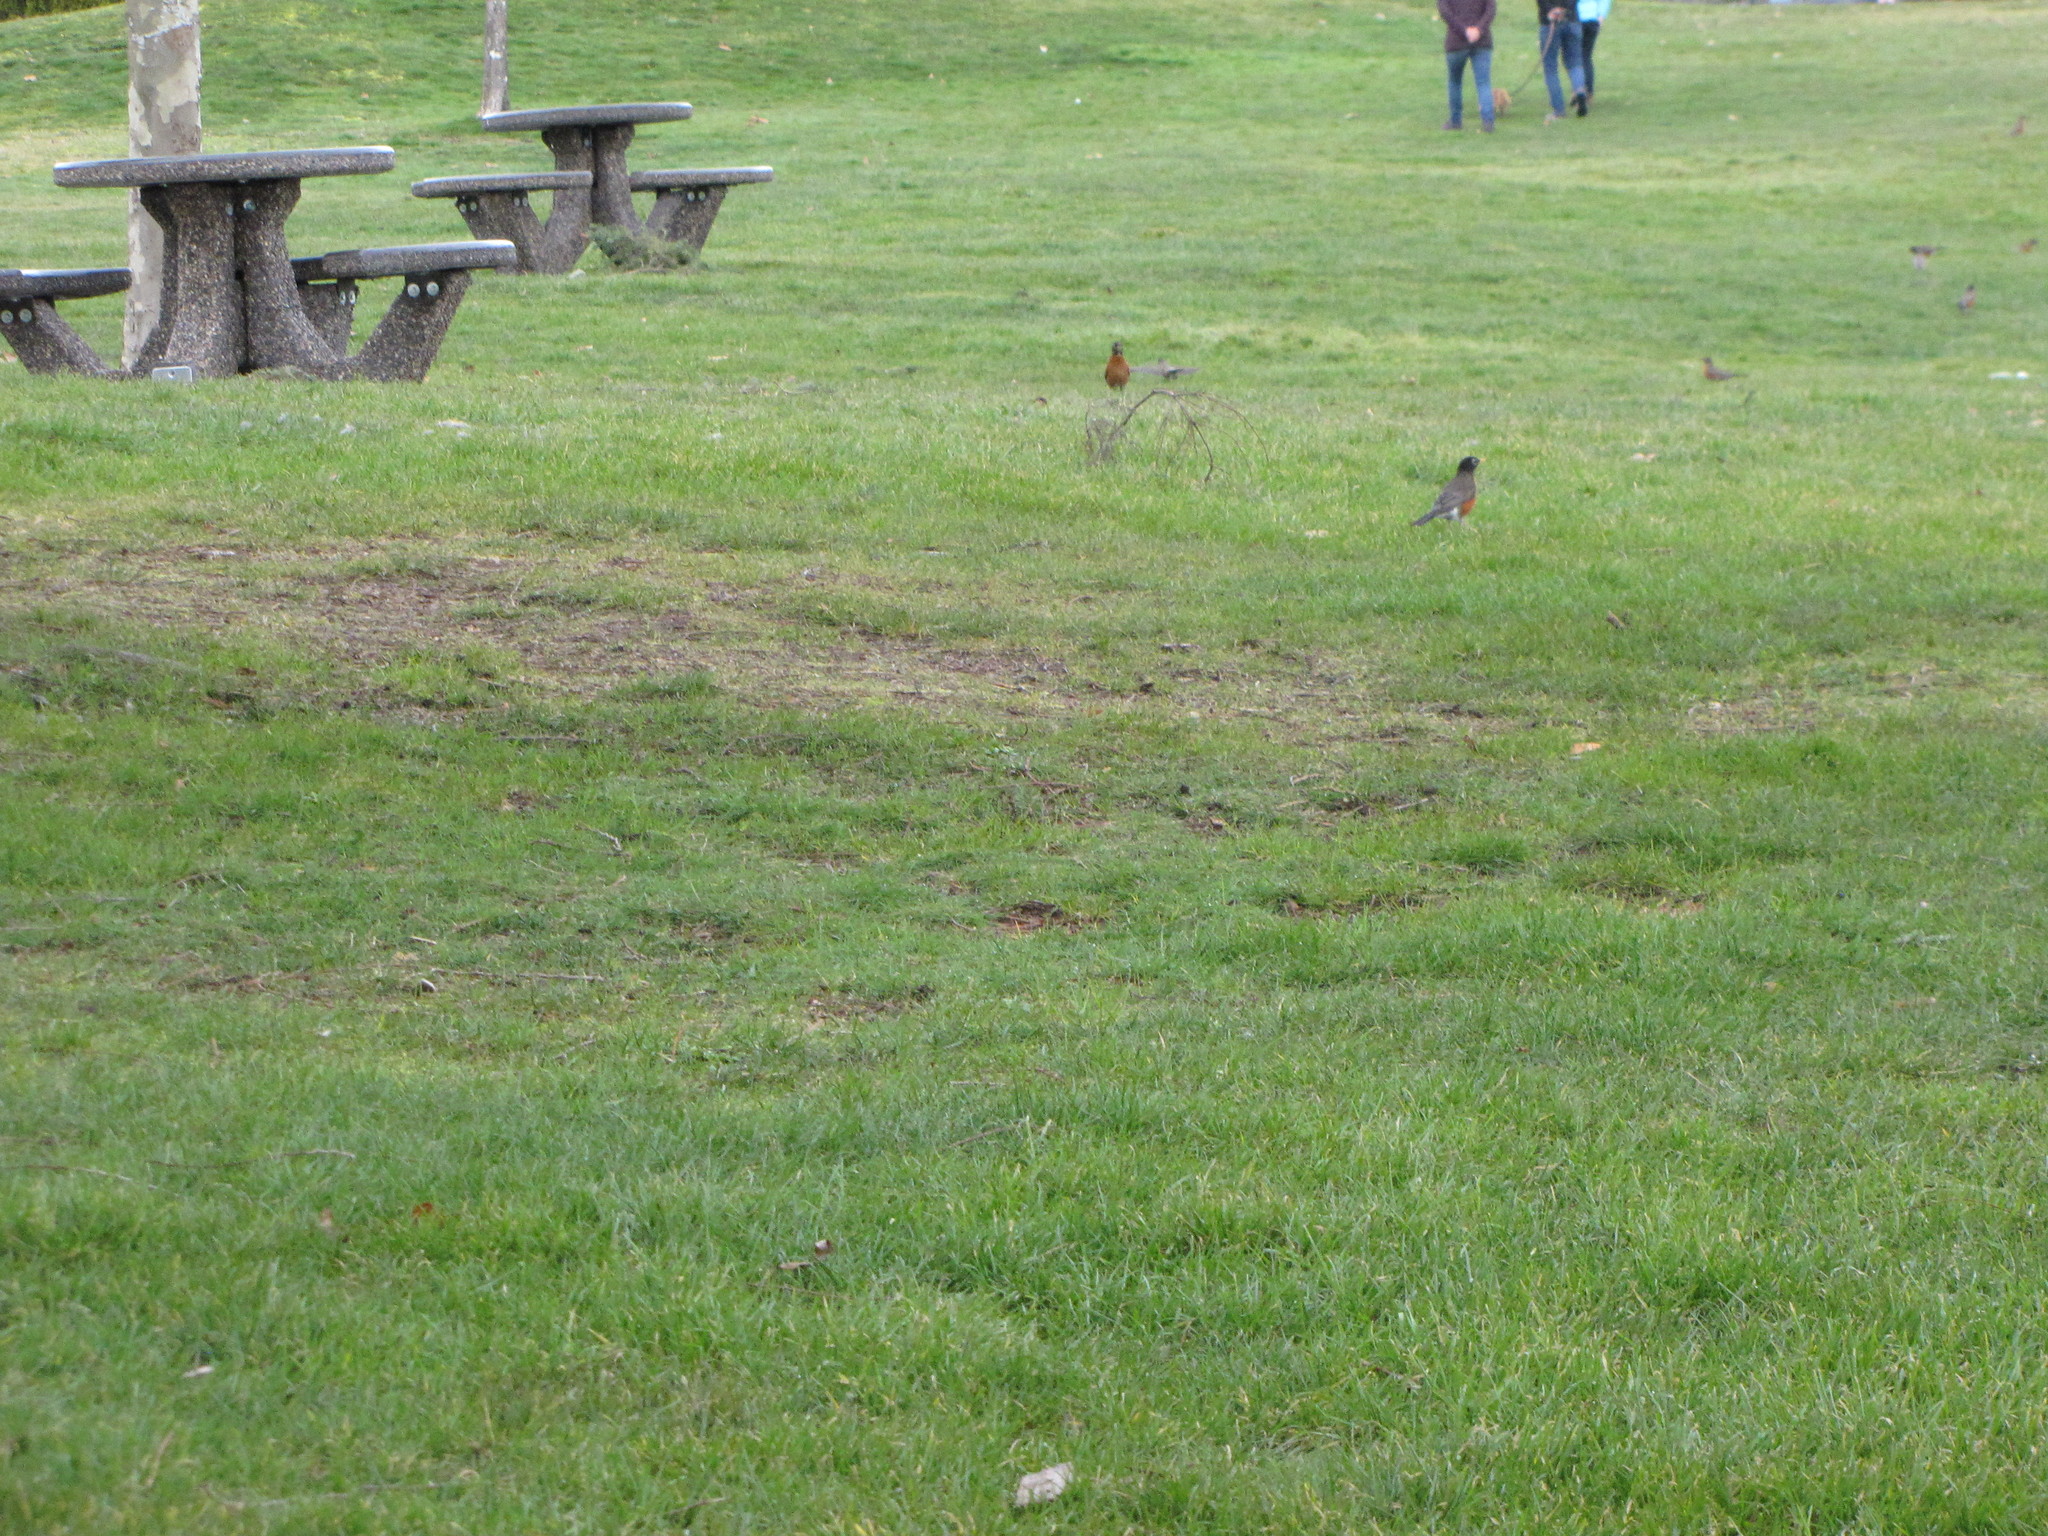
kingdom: Animalia
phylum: Chordata
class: Aves
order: Passeriformes
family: Turdidae
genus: Turdus
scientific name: Turdus migratorius
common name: American robin
